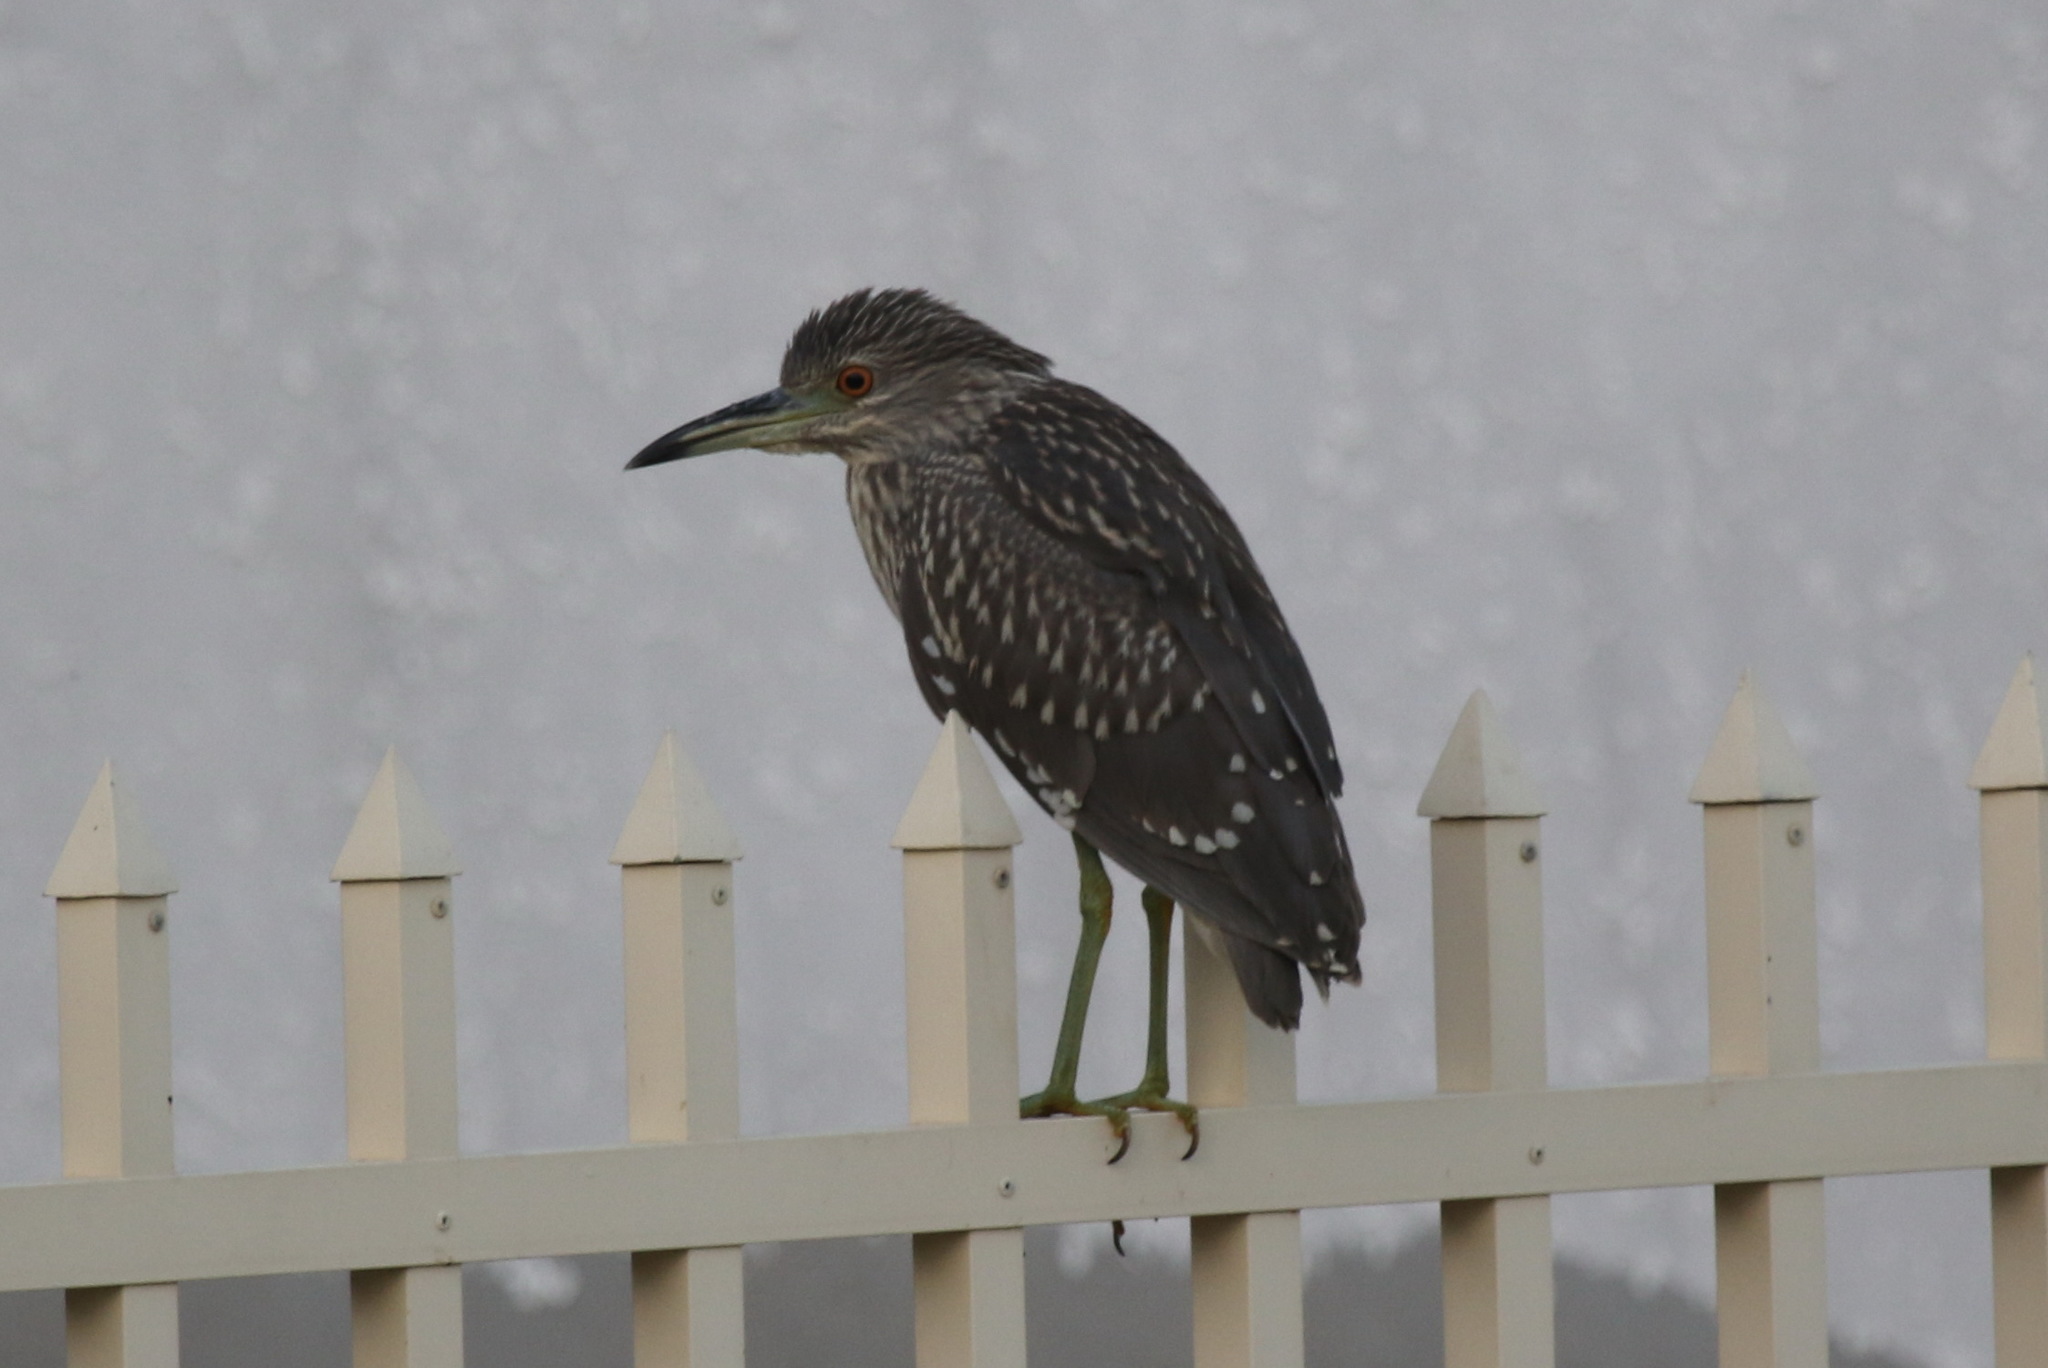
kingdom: Animalia
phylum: Chordata
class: Aves
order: Pelecaniformes
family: Ardeidae
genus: Nycticorax
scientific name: Nycticorax nycticorax
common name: Black-crowned night heron
